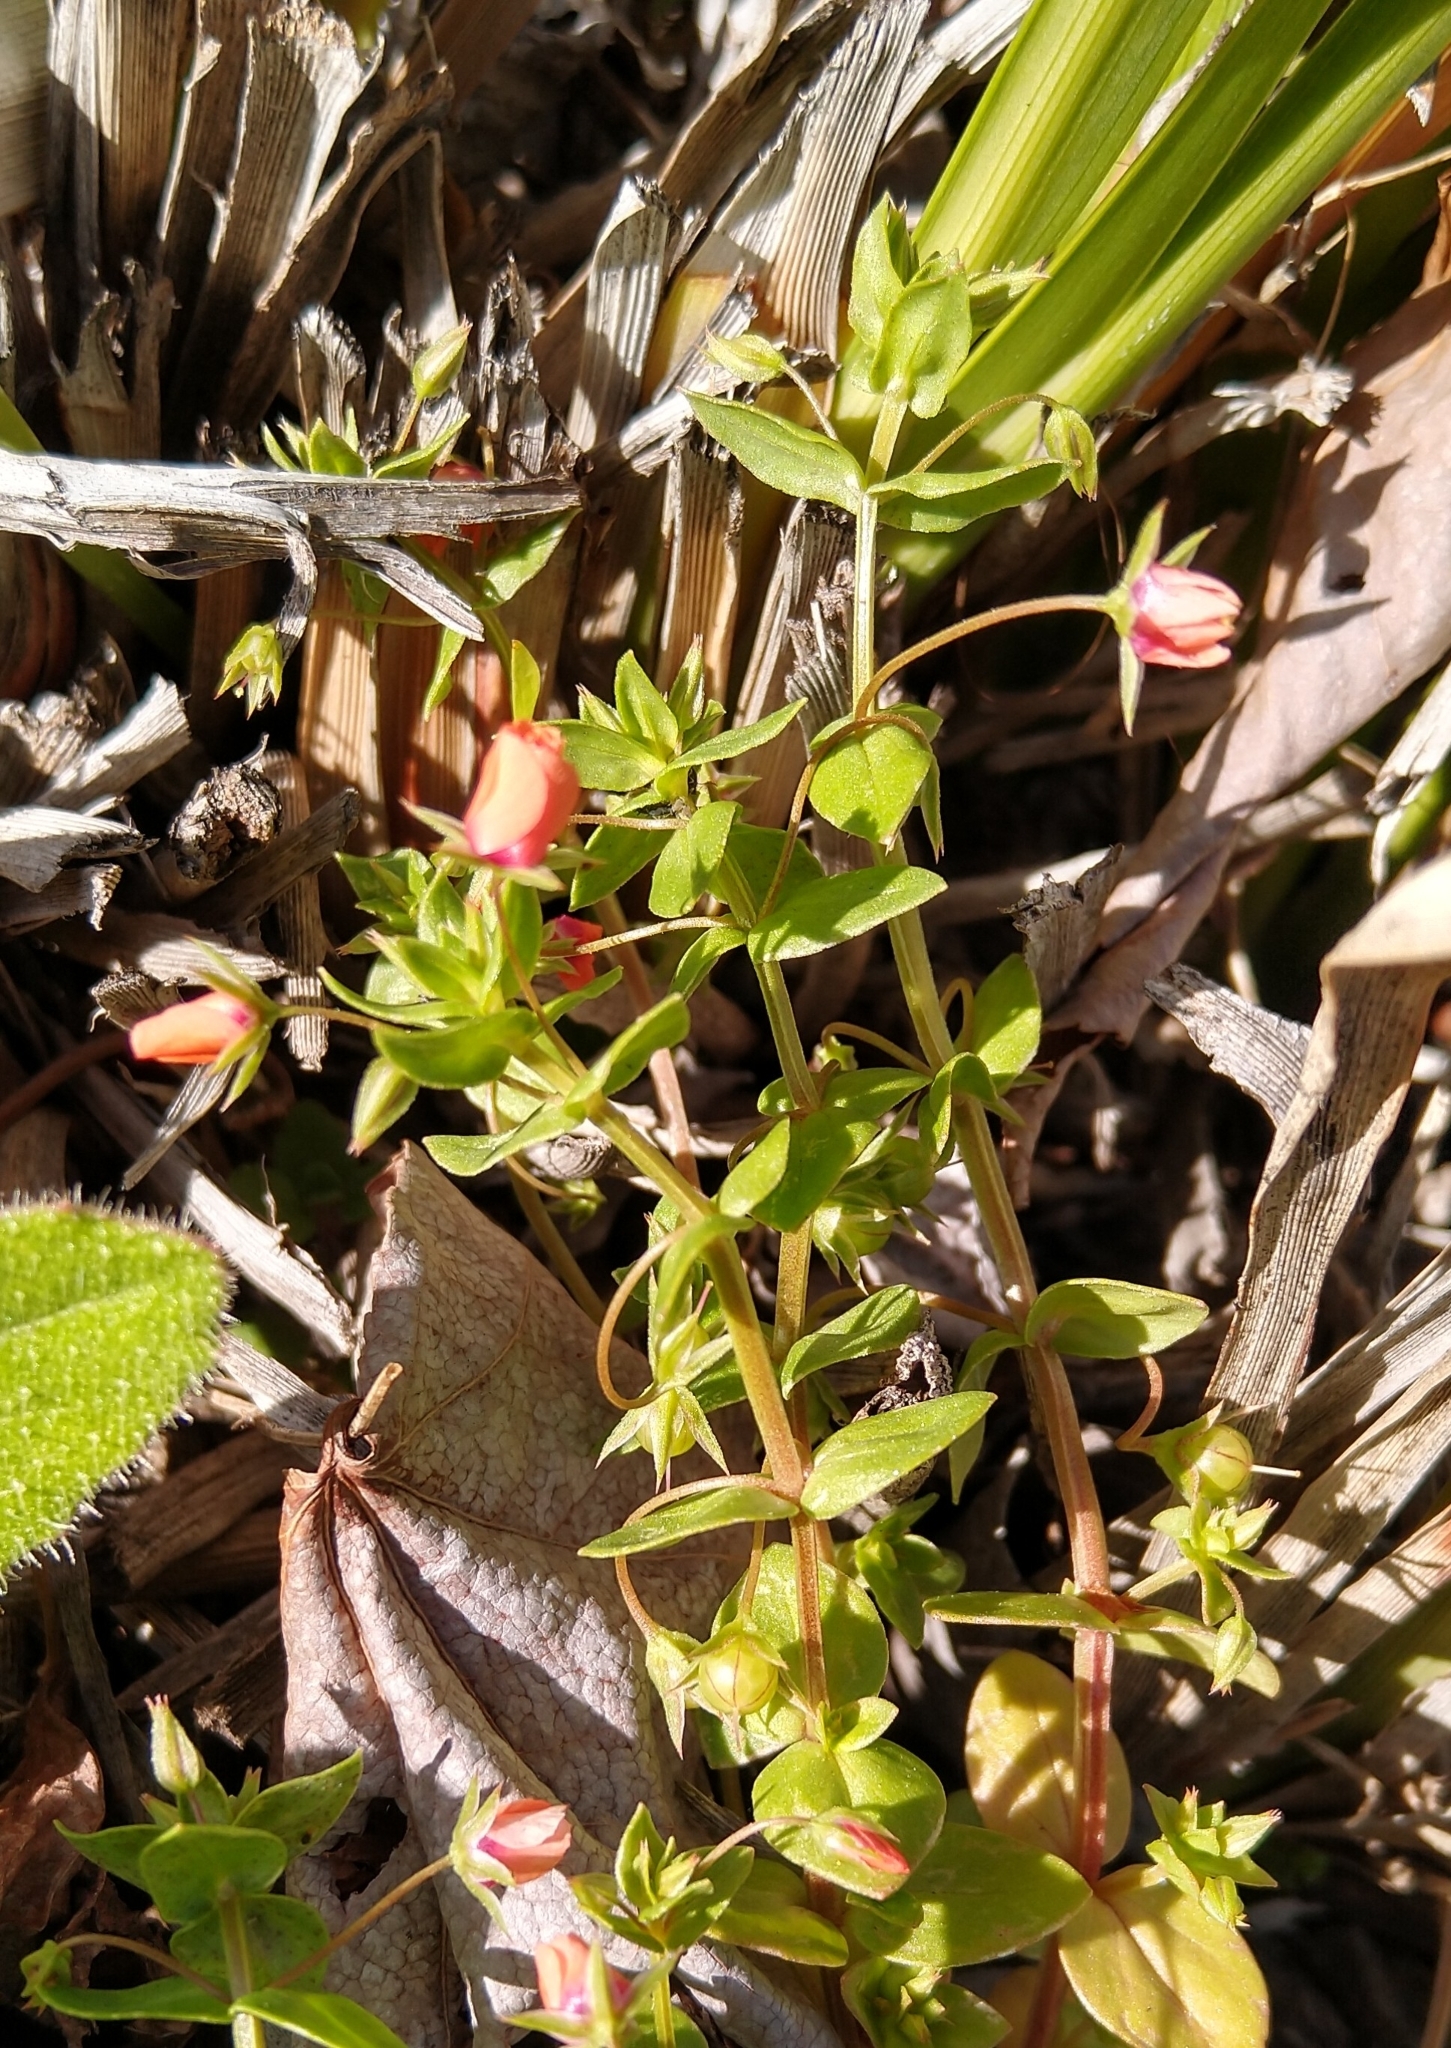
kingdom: Plantae
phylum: Tracheophyta
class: Magnoliopsida
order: Ericales
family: Primulaceae
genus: Lysimachia
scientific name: Lysimachia arvensis
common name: Scarlet pimpernel
